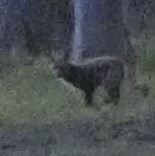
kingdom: Animalia
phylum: Chordata
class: Mammalia
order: Carnivora
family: Canidae
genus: Vulpes
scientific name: Vulpes vulpes
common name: Red fox
